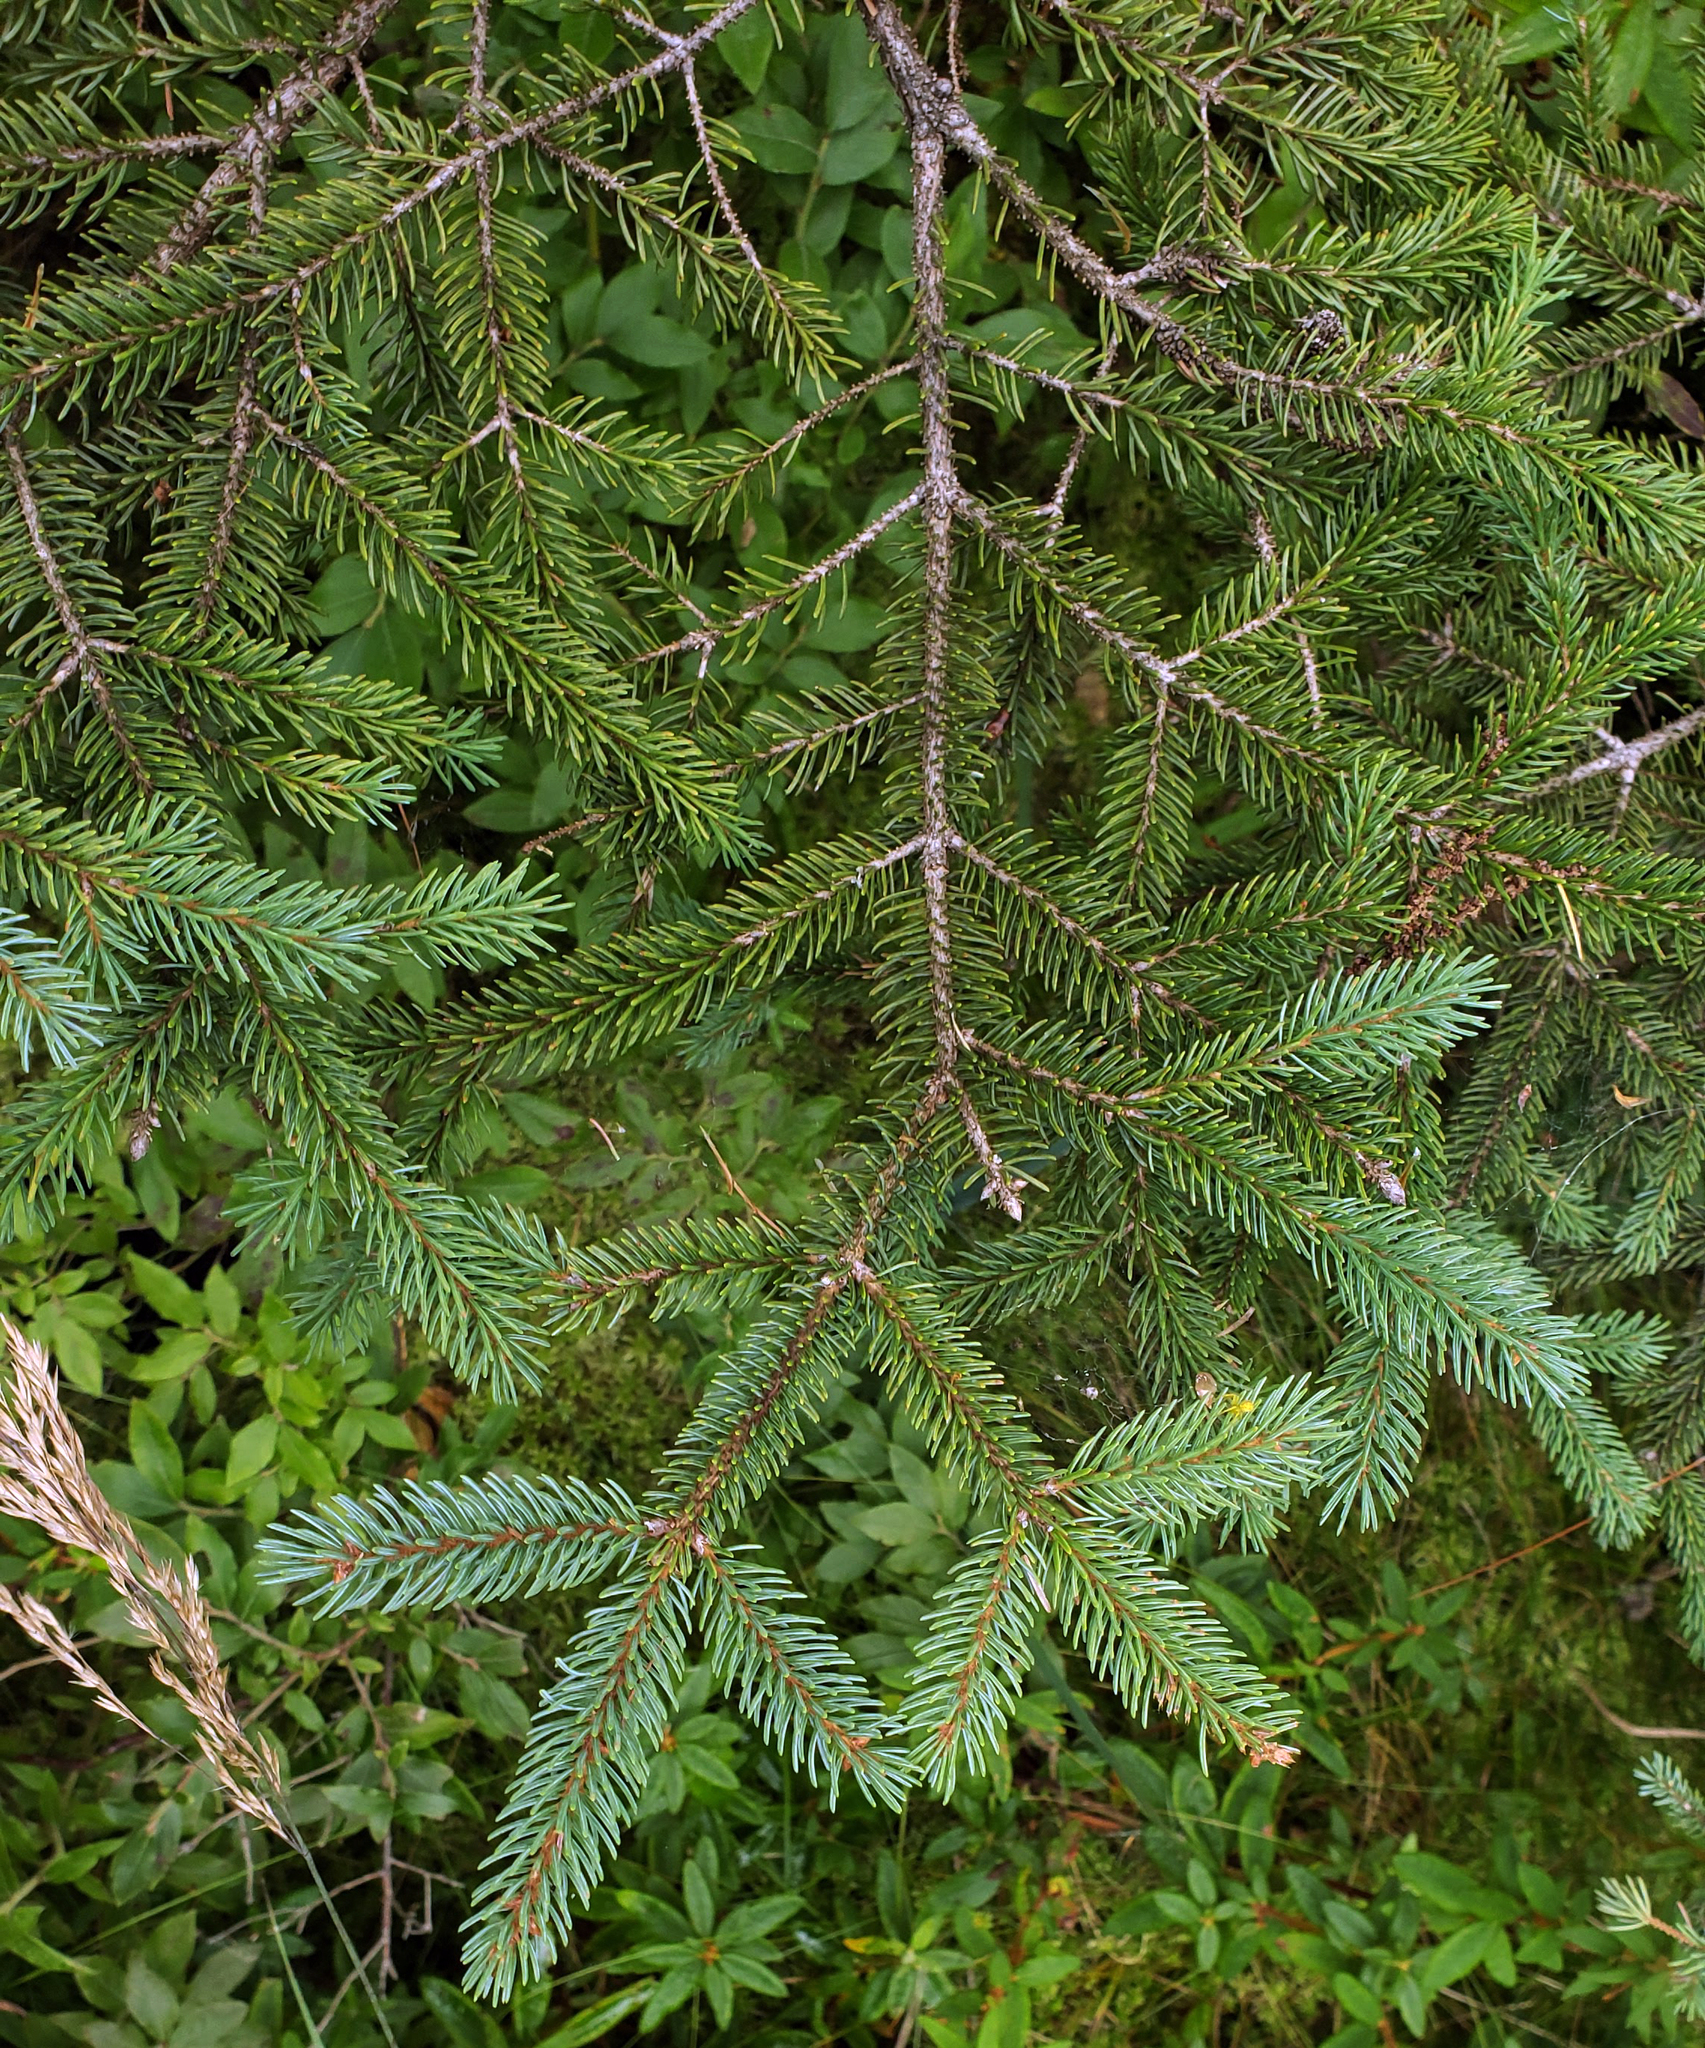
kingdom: Plantae
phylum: Tracheophyta
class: Pinopsida
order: Pinales
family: Pinaceae
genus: Picea
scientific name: Picea mariana
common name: Black spruce
